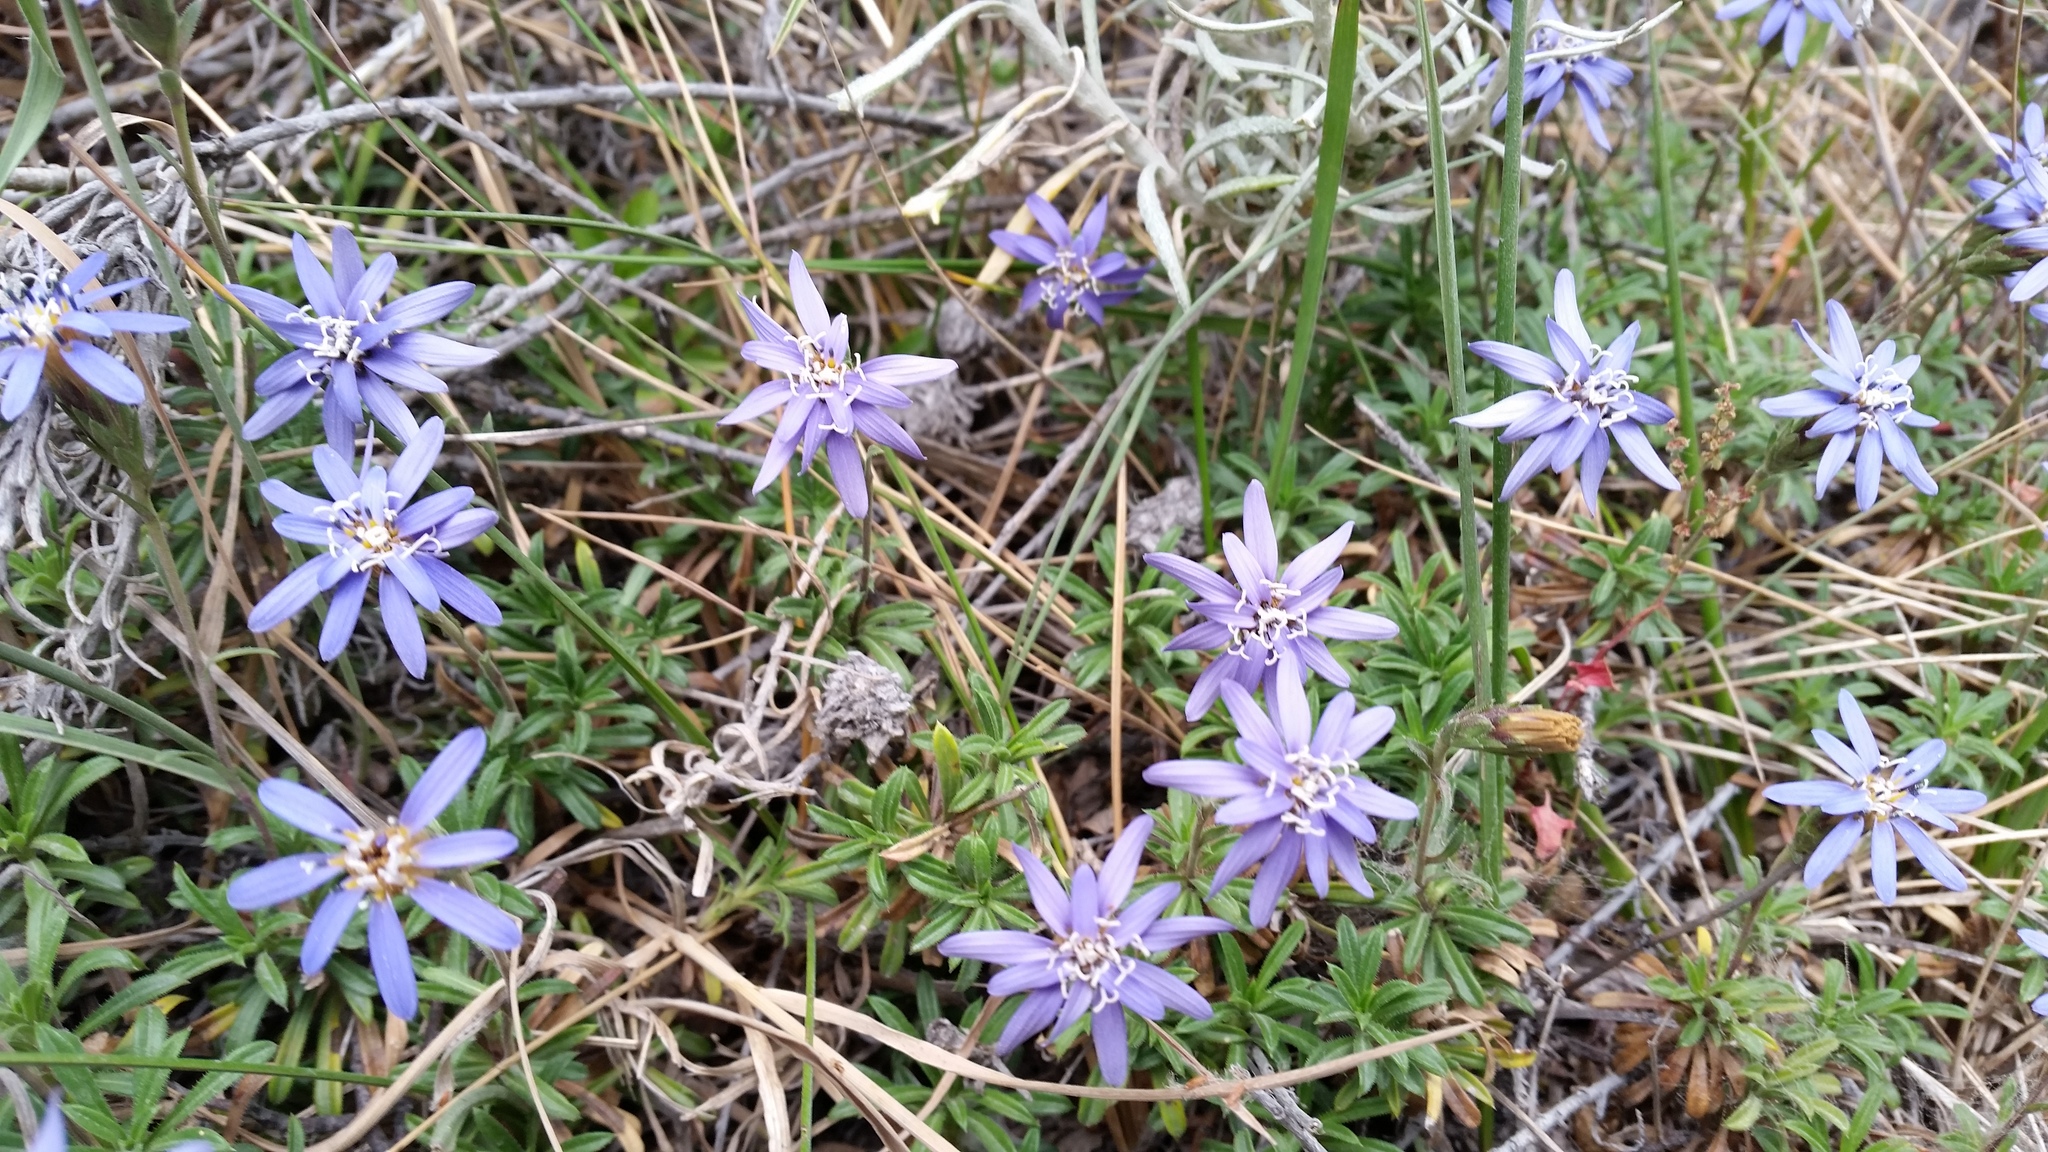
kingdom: Plantae
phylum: Tracheophyta
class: Magnoliopsida
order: Asterales
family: Asteraceae
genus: Perezia
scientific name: Perezia recurvata
